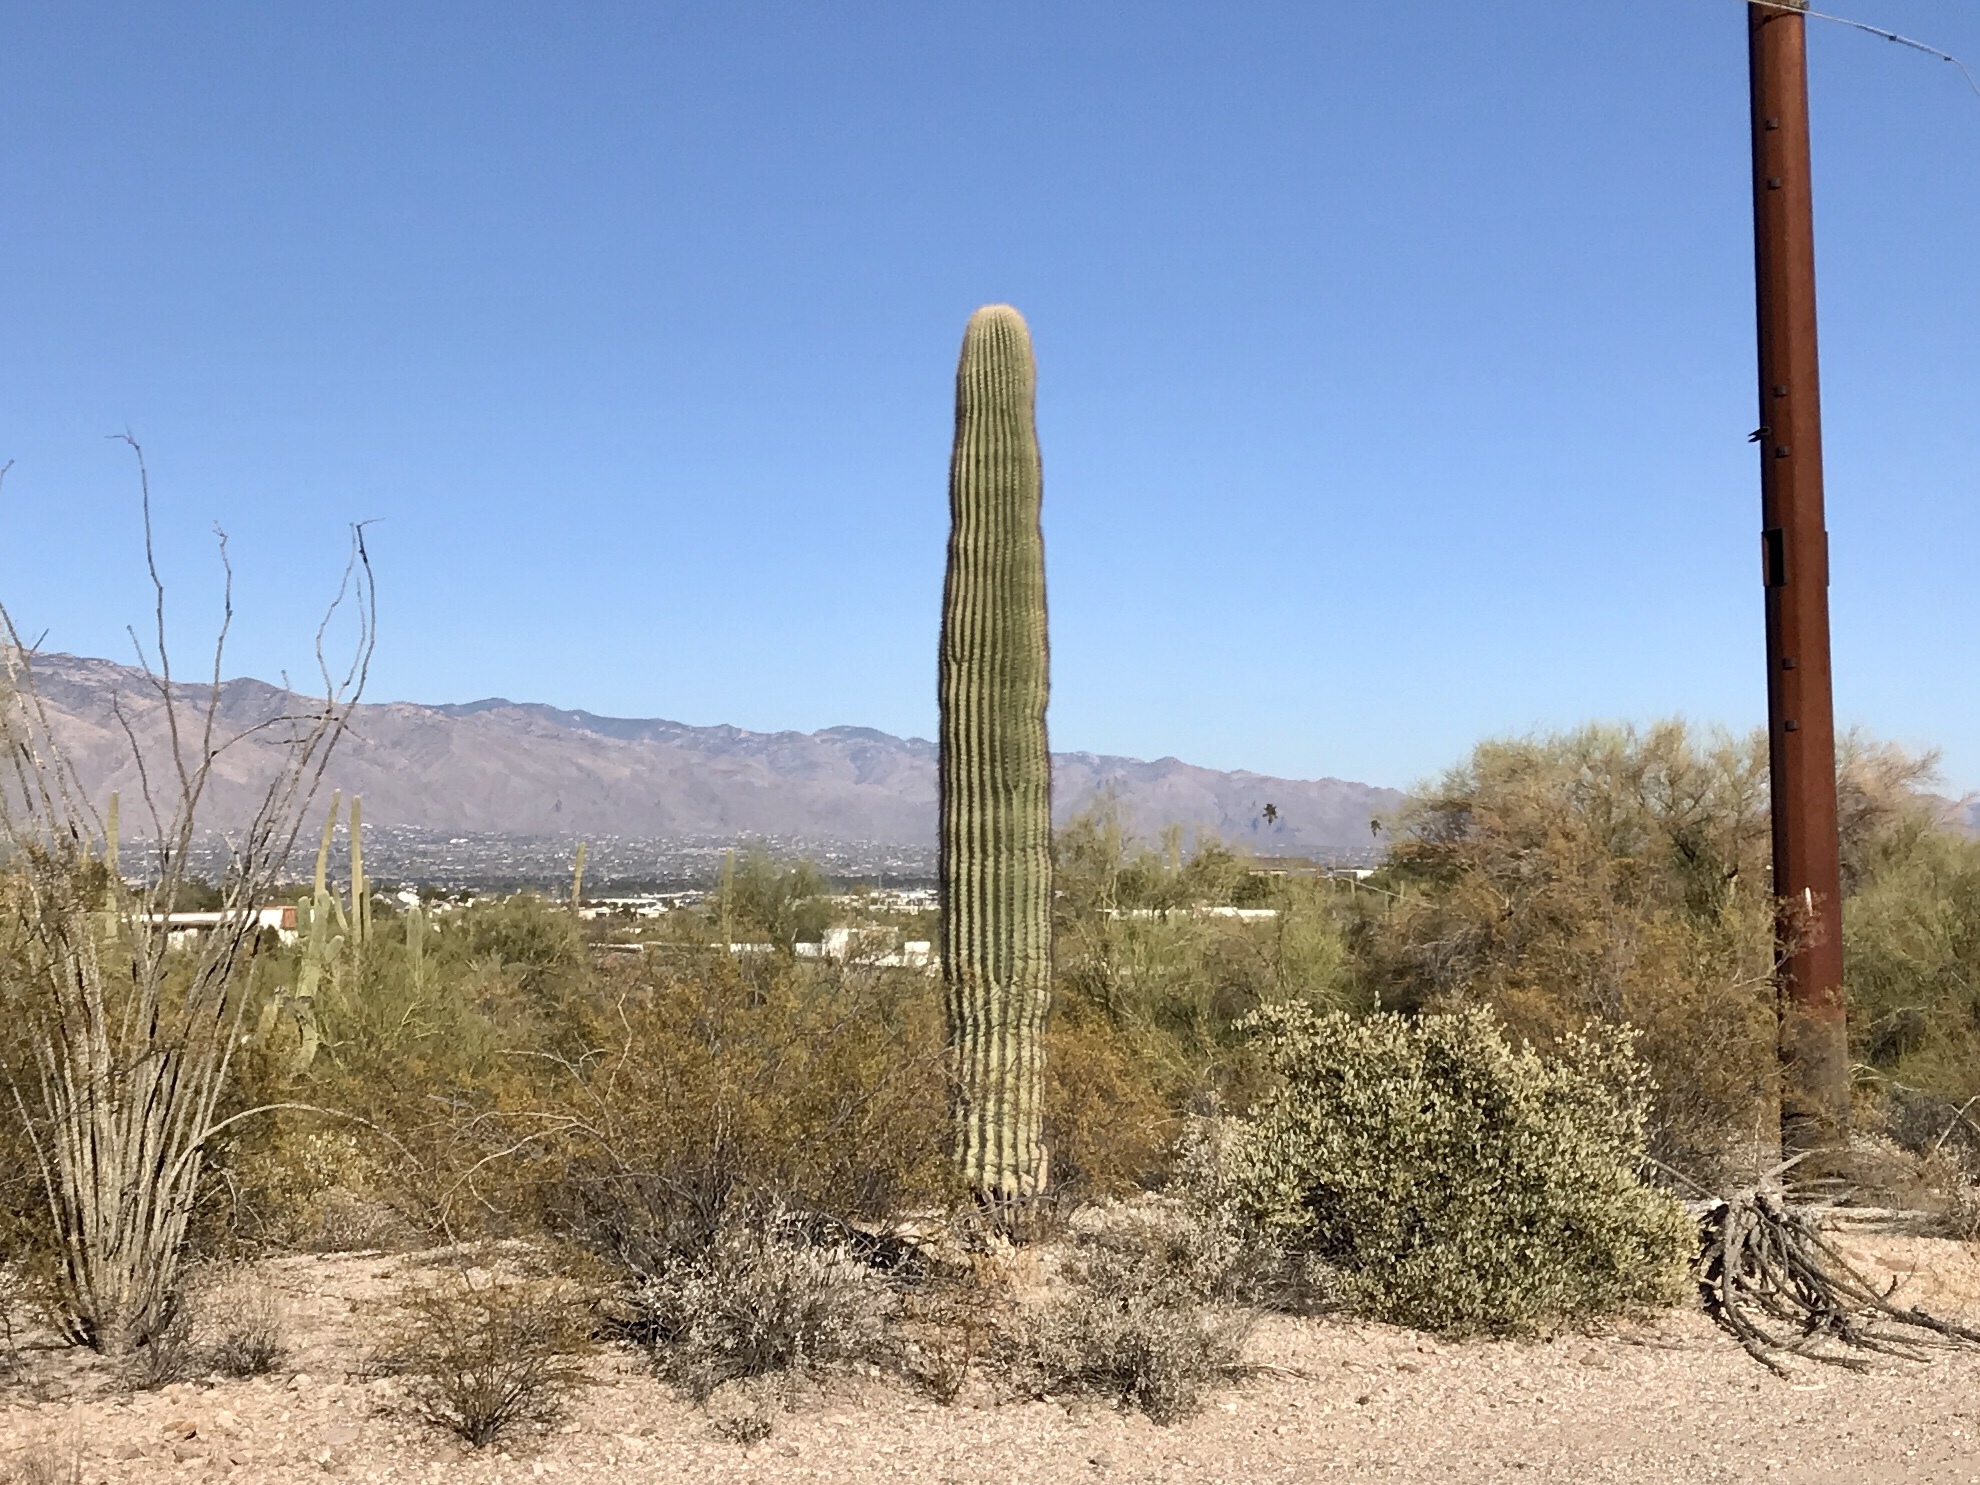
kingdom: Plantae
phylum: Tracheophyta
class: Magnoliopsida
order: Caryophyllales
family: Cactaceae
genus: Carnegiea
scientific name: Carnegiea gigantea
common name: Saguaro
